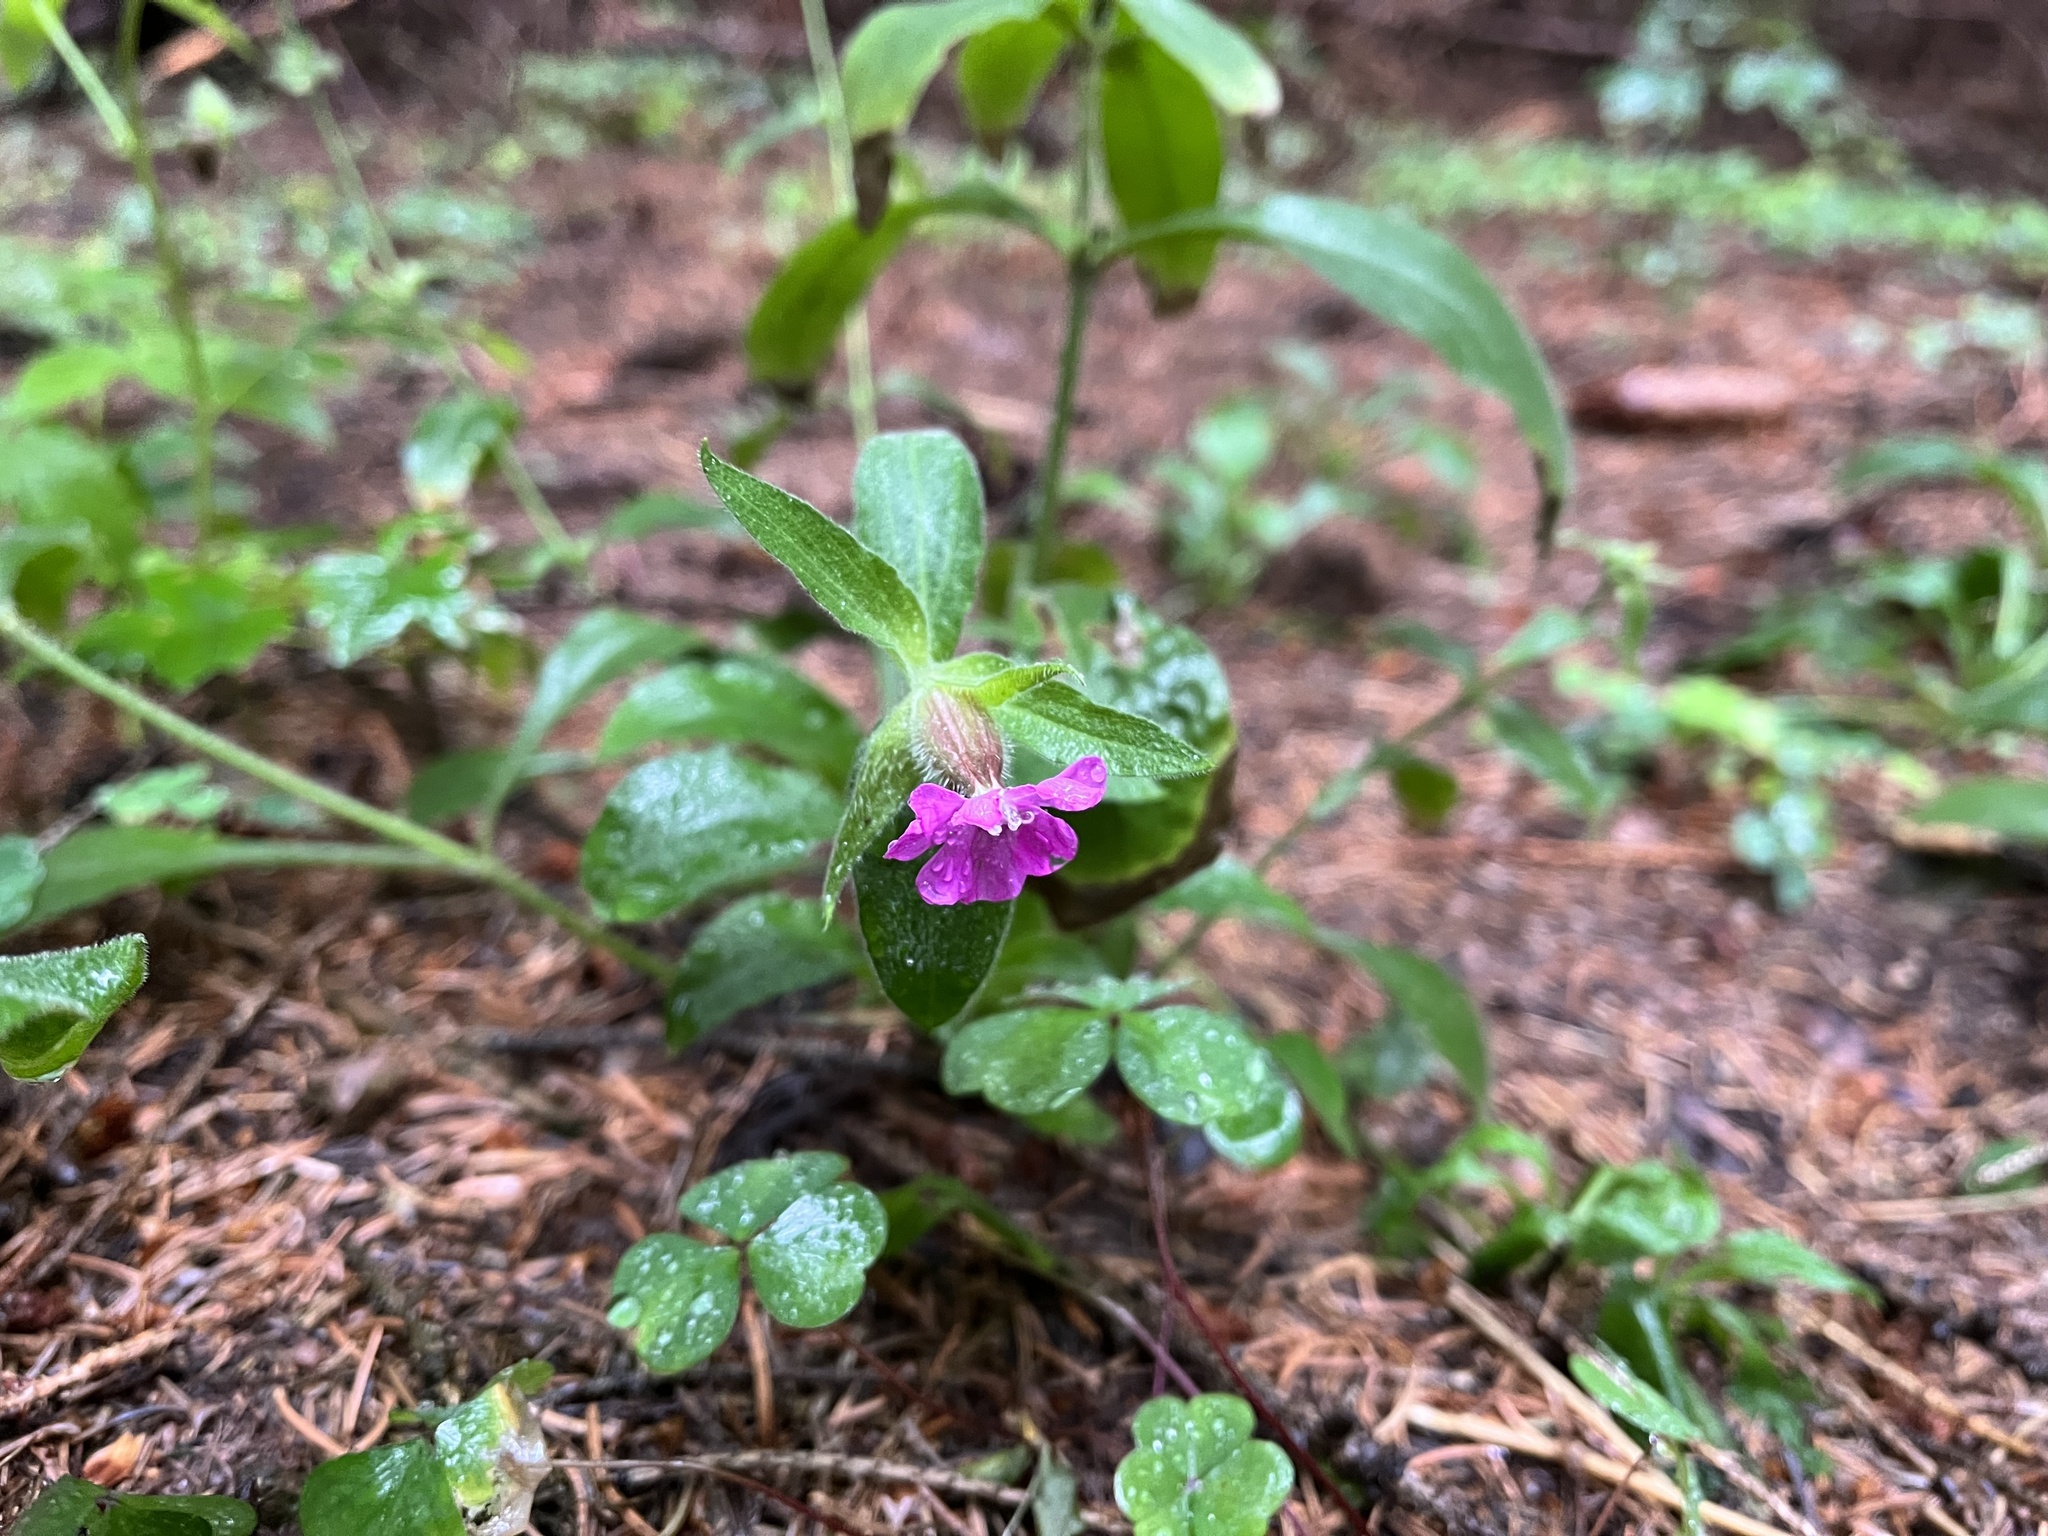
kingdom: Plantae
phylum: Tracheophyta
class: Magnoliopsida
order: Caryophyllales
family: Caryophyllaceae
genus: Silene
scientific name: Silene dioica
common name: Red campion
